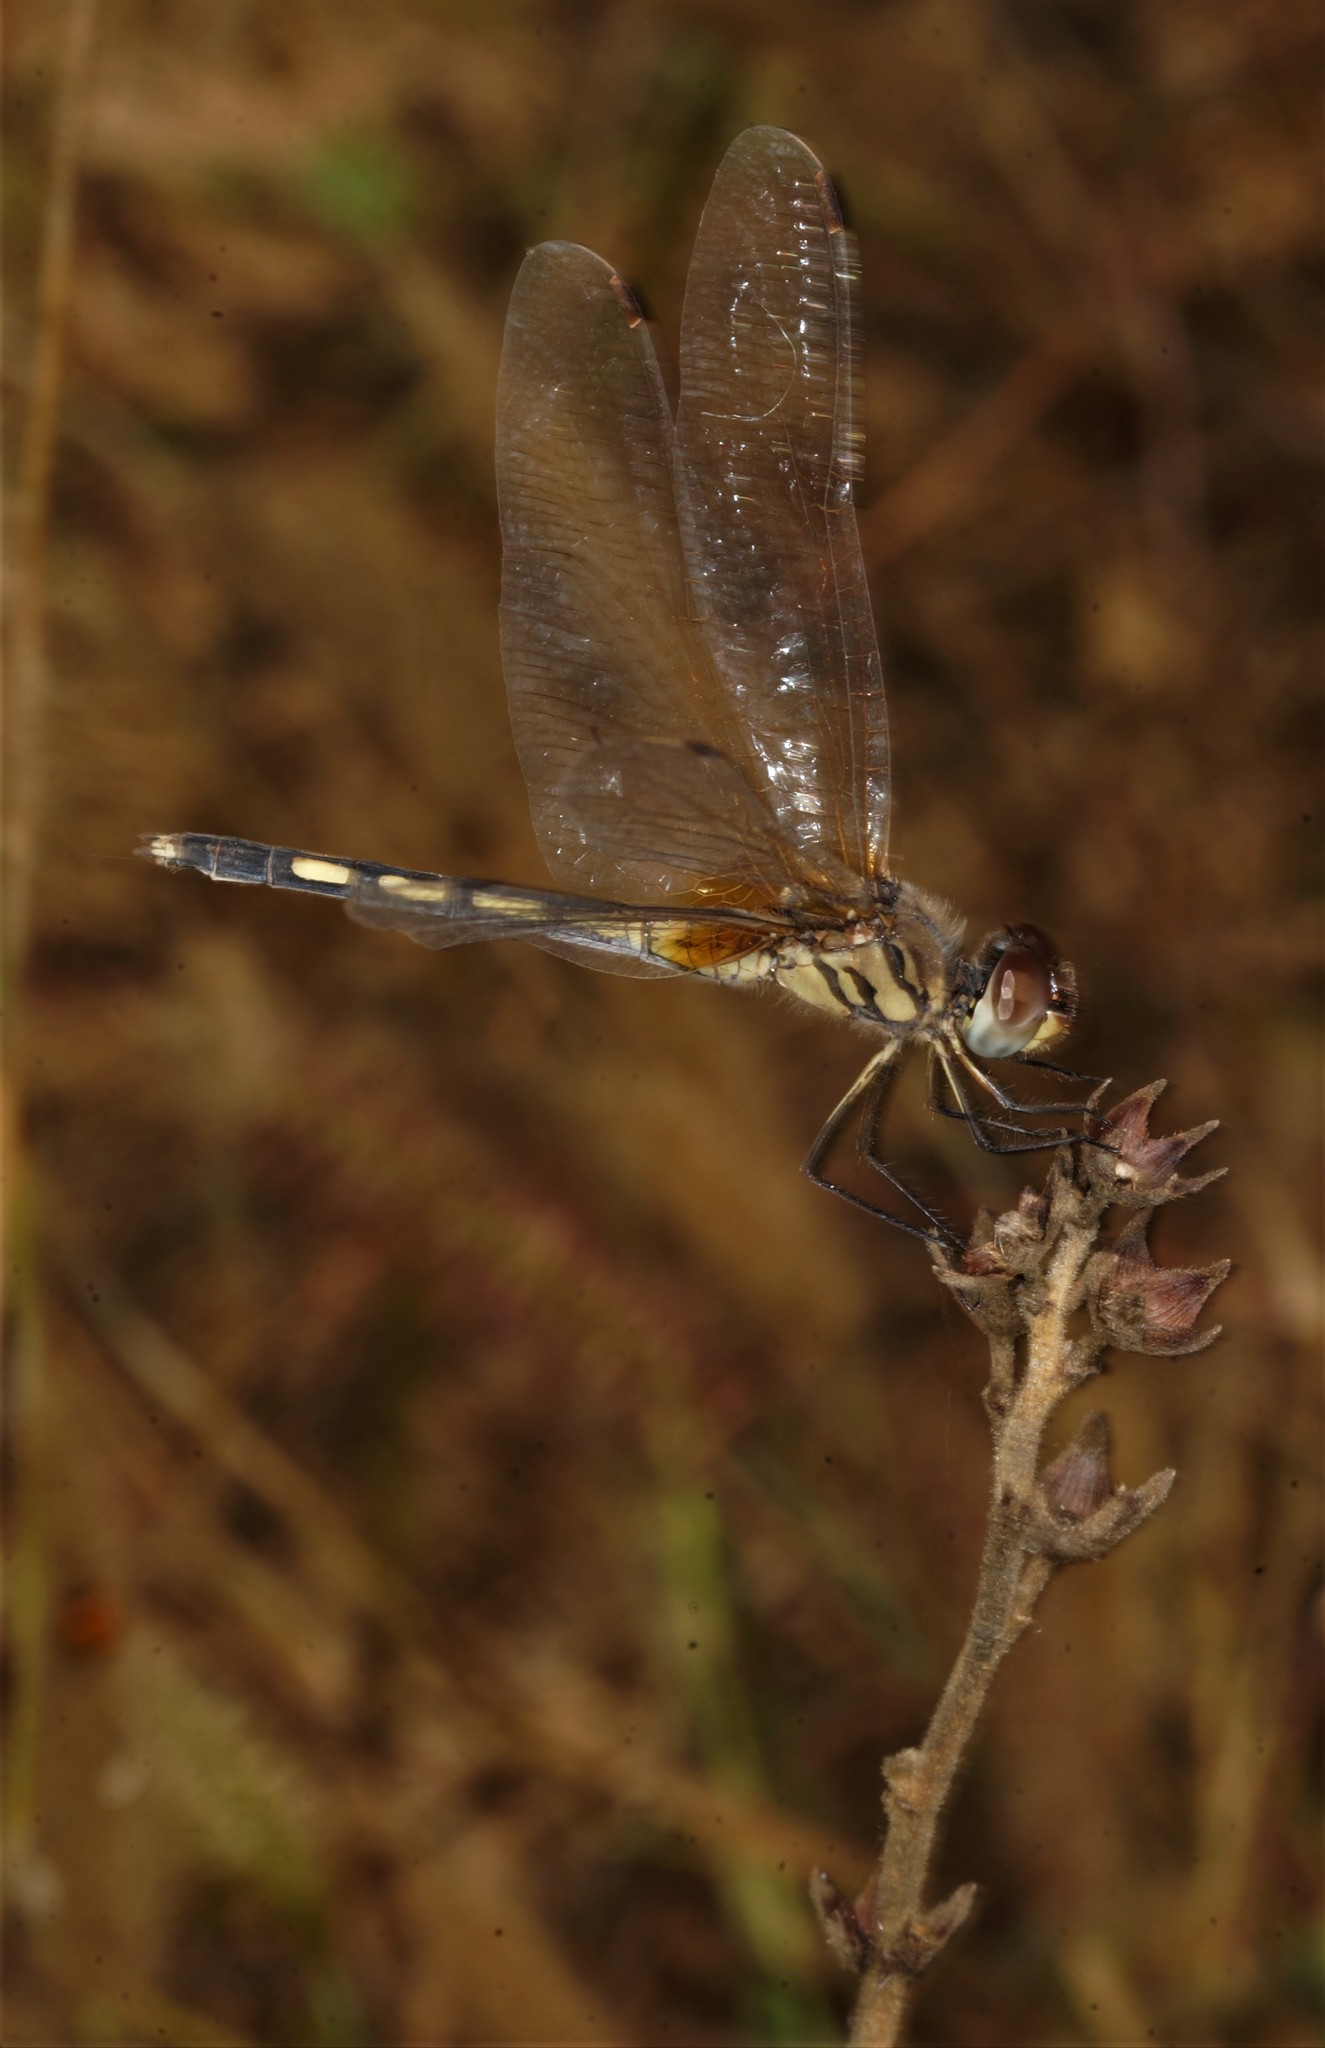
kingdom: Animalia
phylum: Arthropoda
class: Insecta
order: Odonata
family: Libellulidae
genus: Trithemis
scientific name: Trithemis pallidinervis
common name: Dancing dropwing
